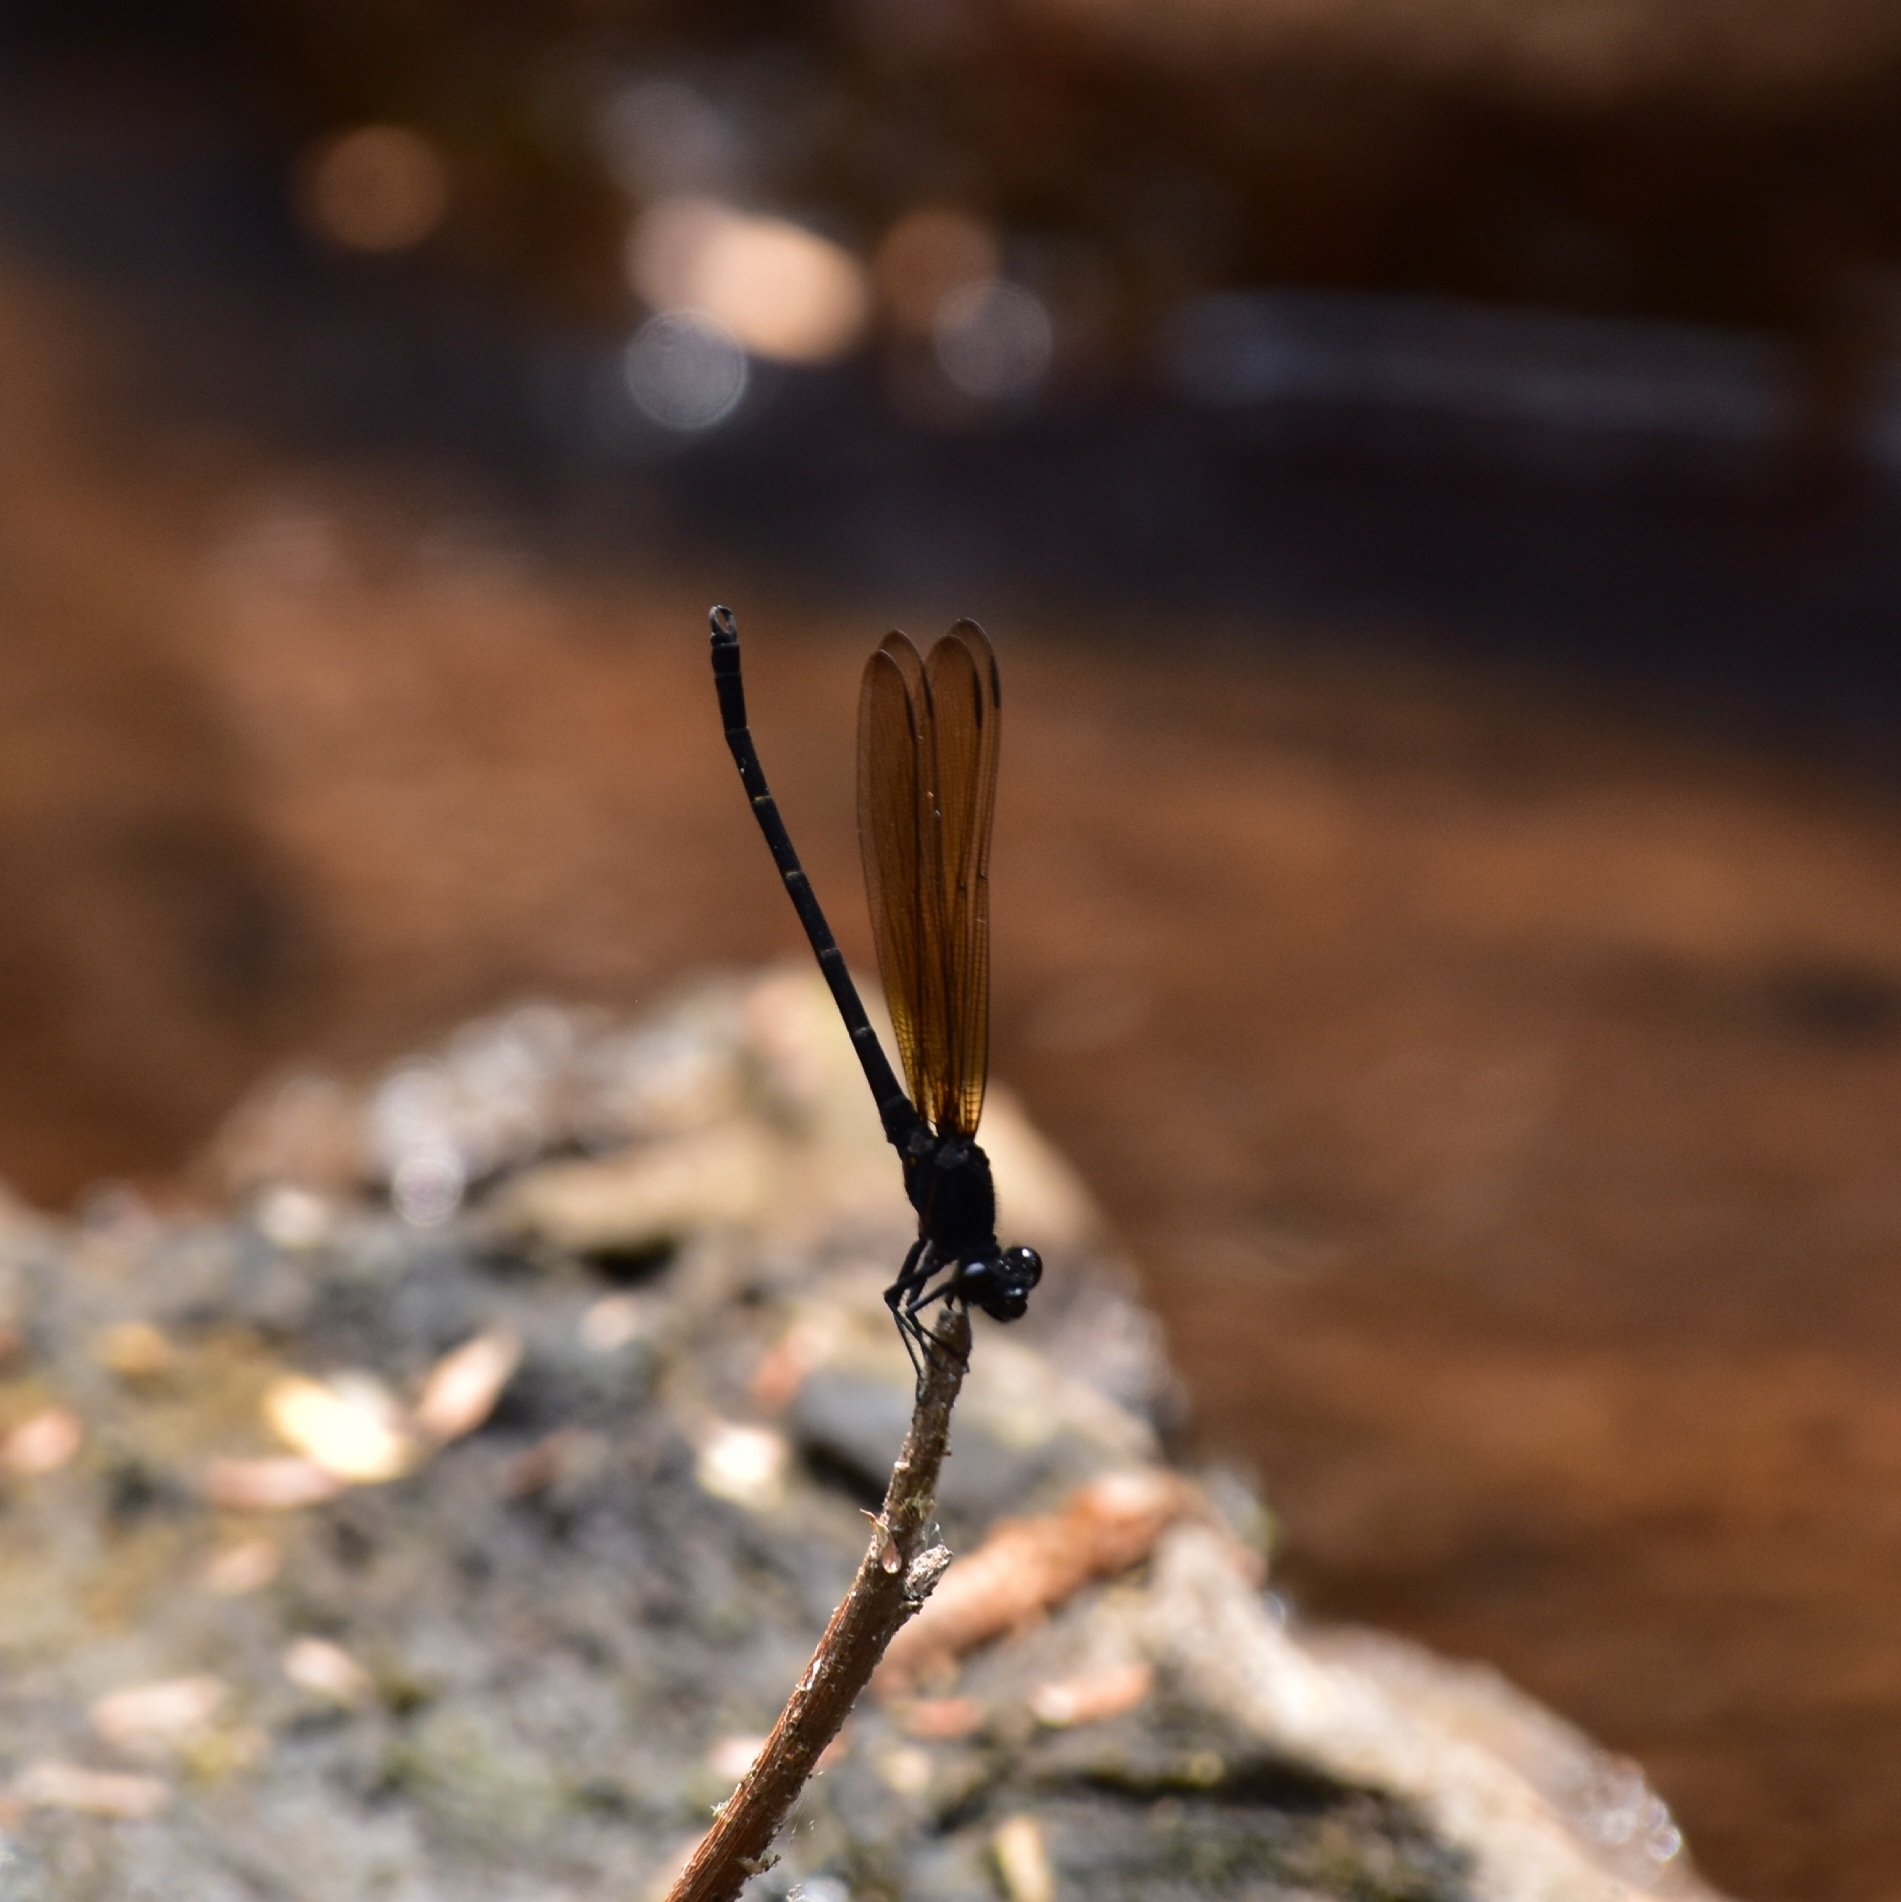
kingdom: Animalia
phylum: Arthropoda
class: Insecta
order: Odonata
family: Euphaeidae
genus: Dysphaea
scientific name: Dysphaea ethela
